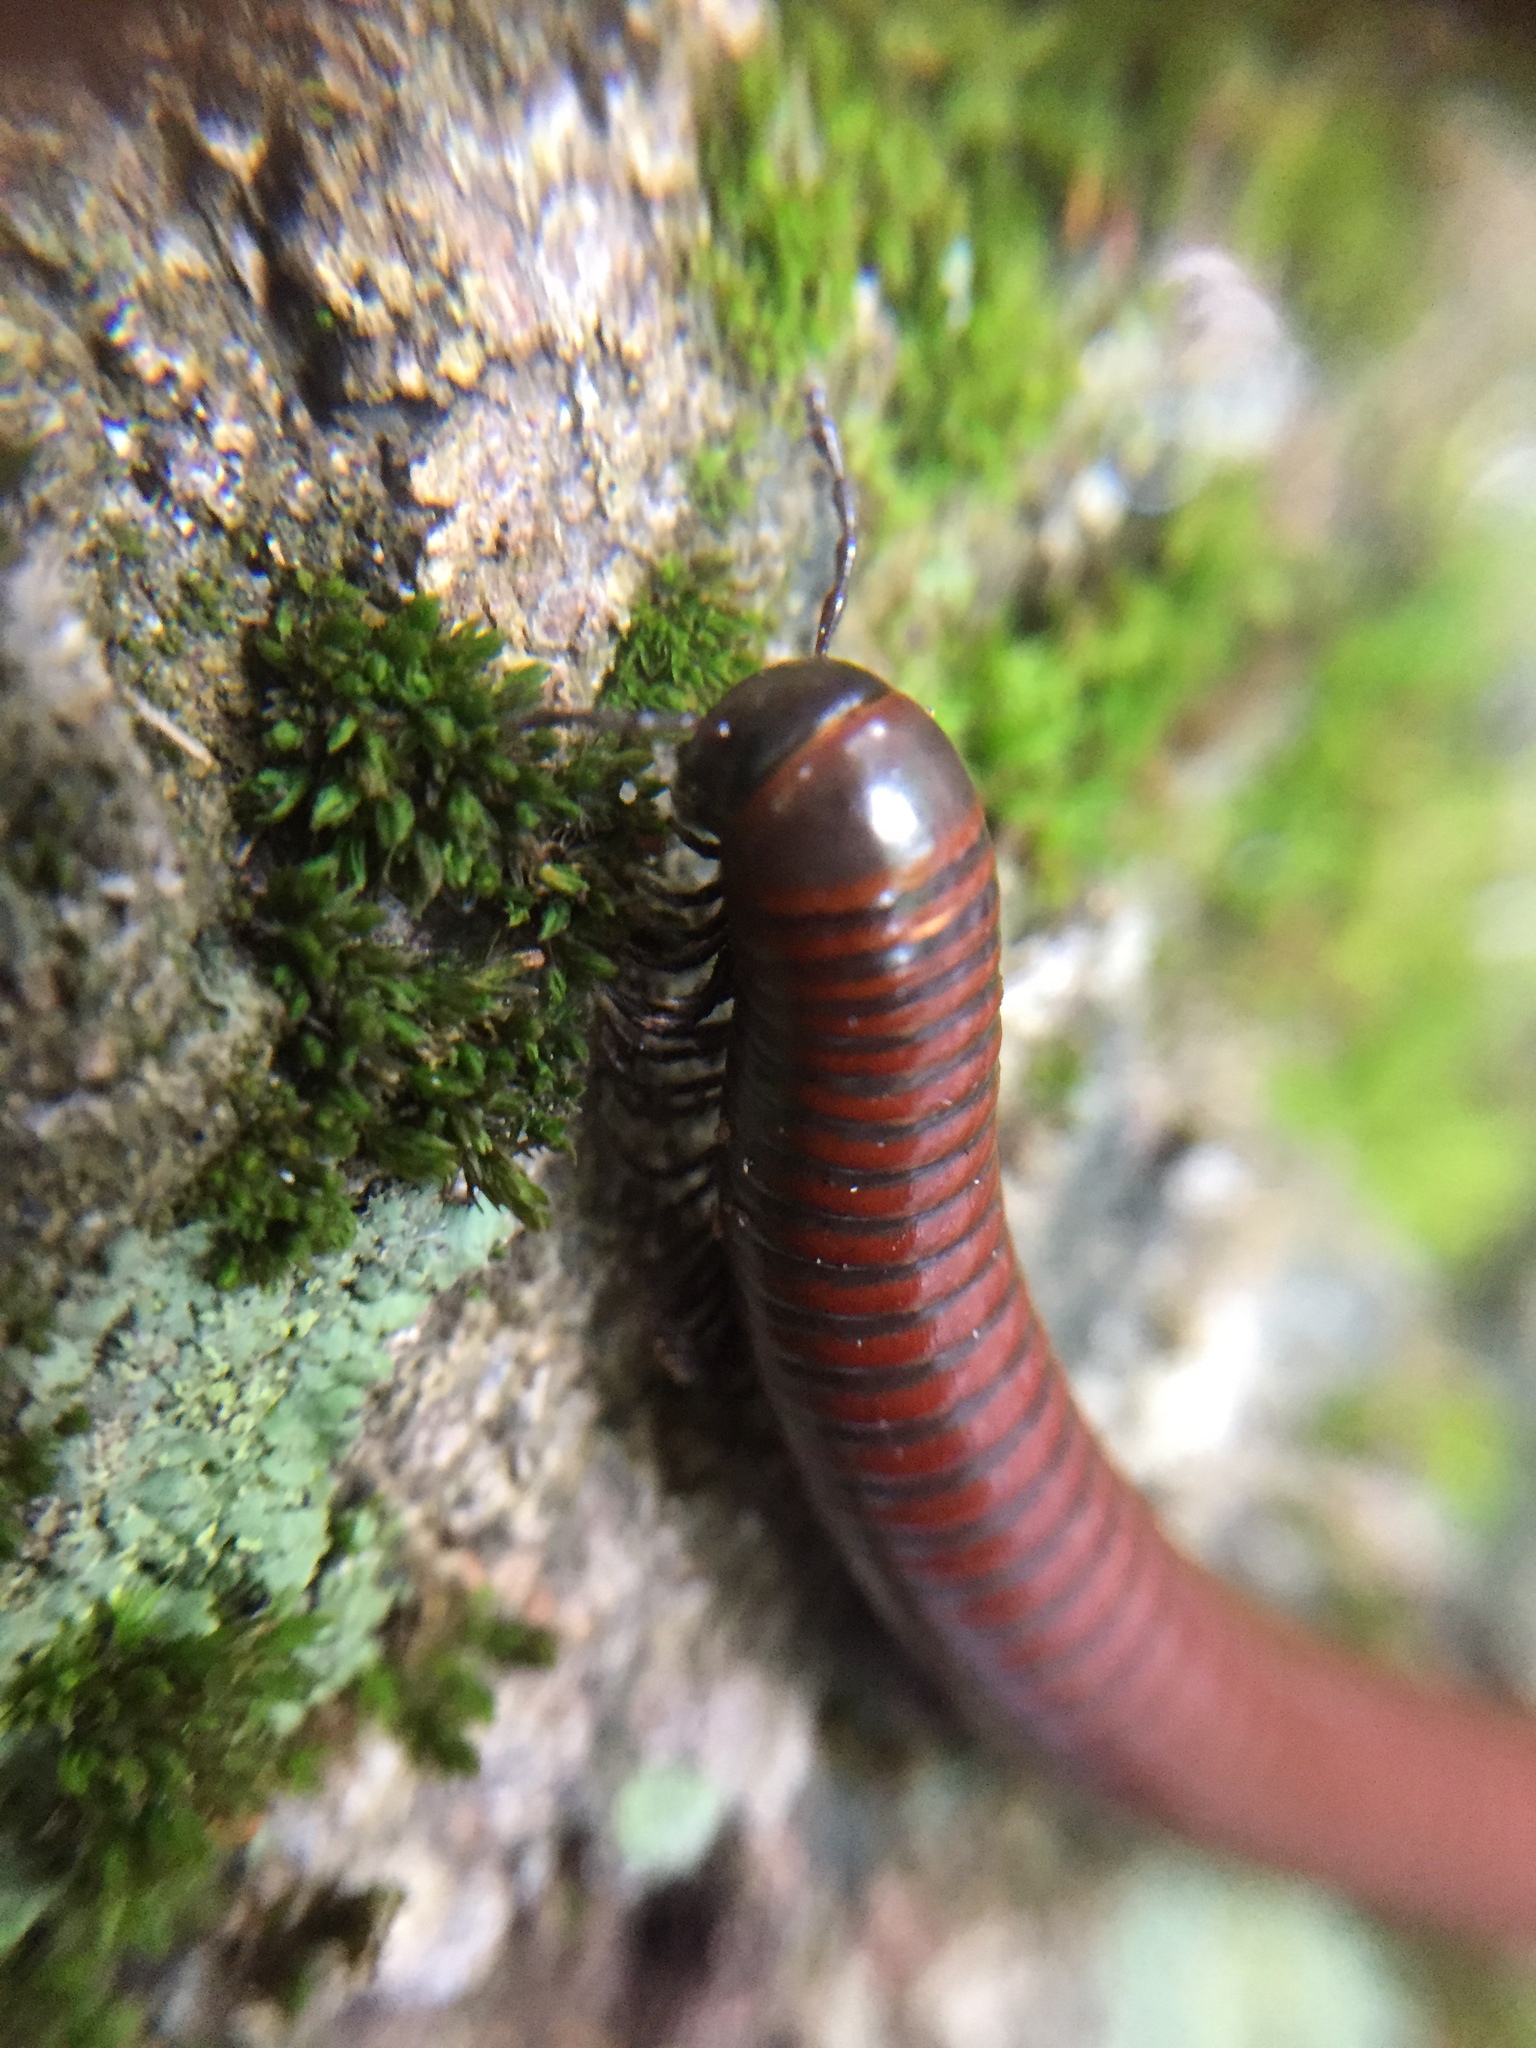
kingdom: Animalia
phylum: Arthropoda
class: Diplopoda
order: Julida
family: Julidae
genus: Pachyiulus
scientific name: Pachyiulus hungaricus
